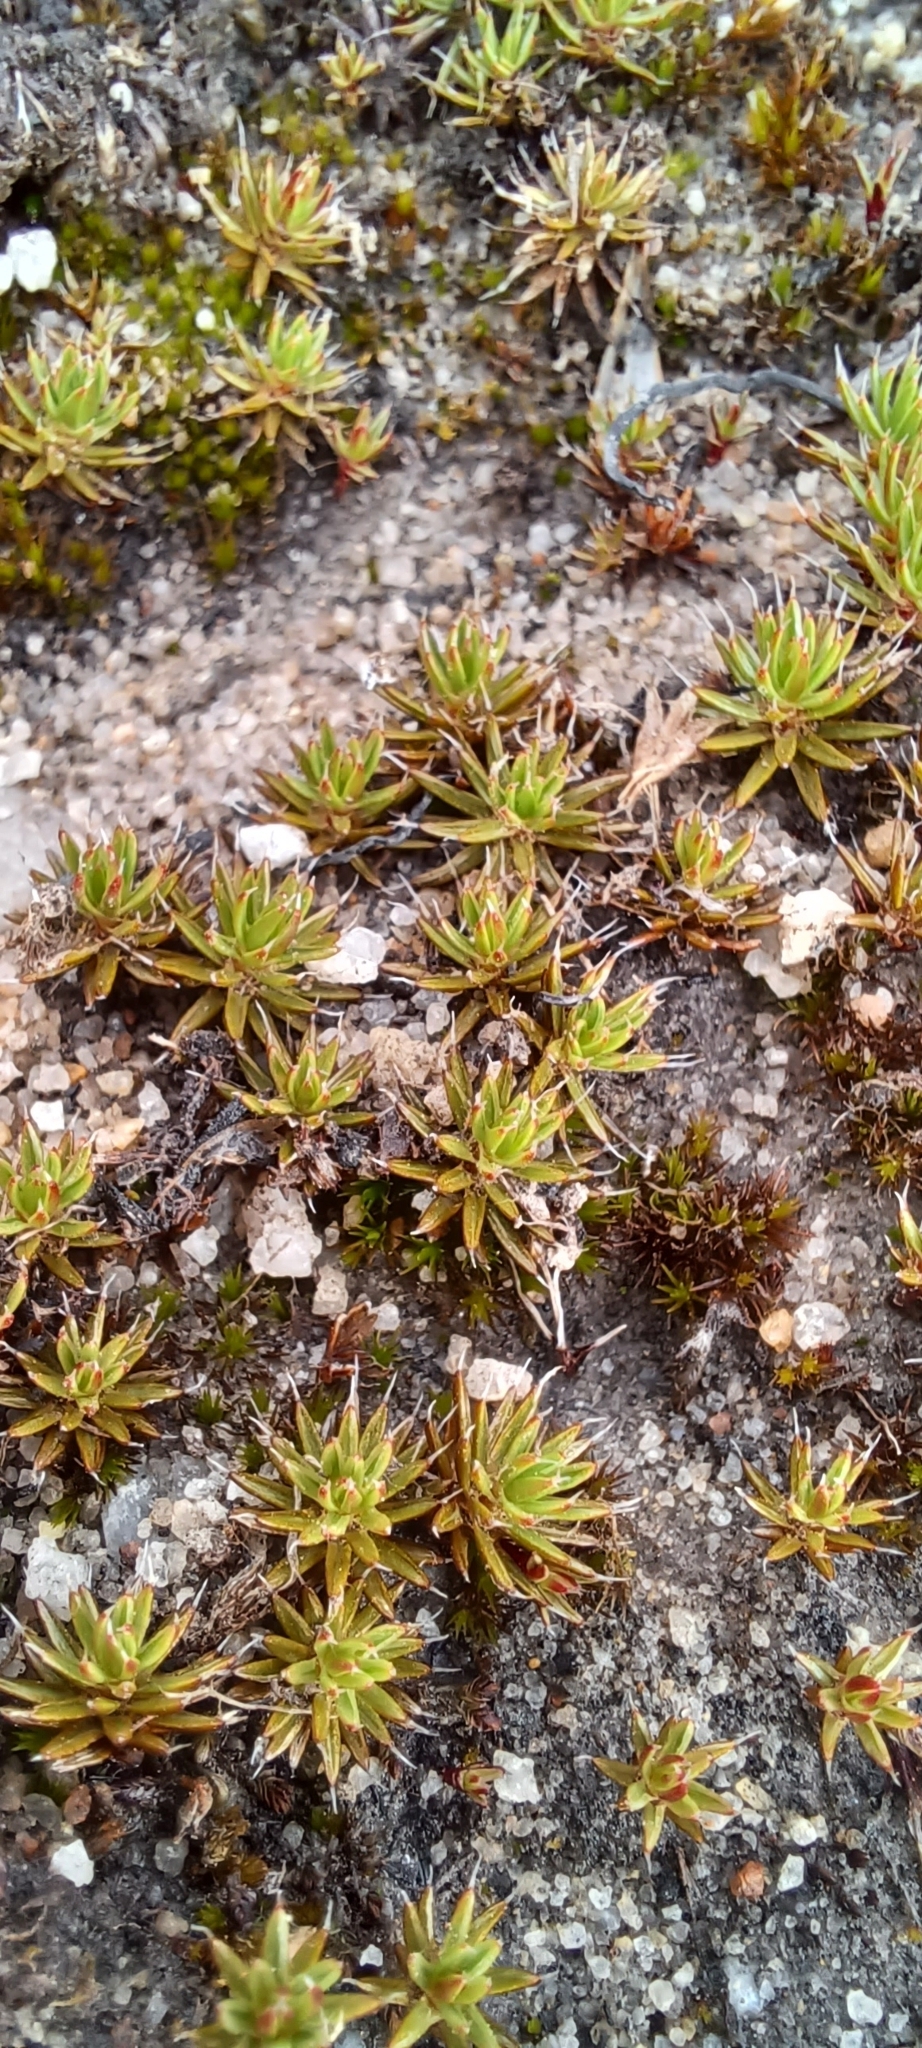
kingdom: Plantae
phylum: Bryophyta
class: Polytrichopsida
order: Polytrichales
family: Polytrichaceae
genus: Polytrichum
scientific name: Polytrichum piliferum
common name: Bristly haircap
